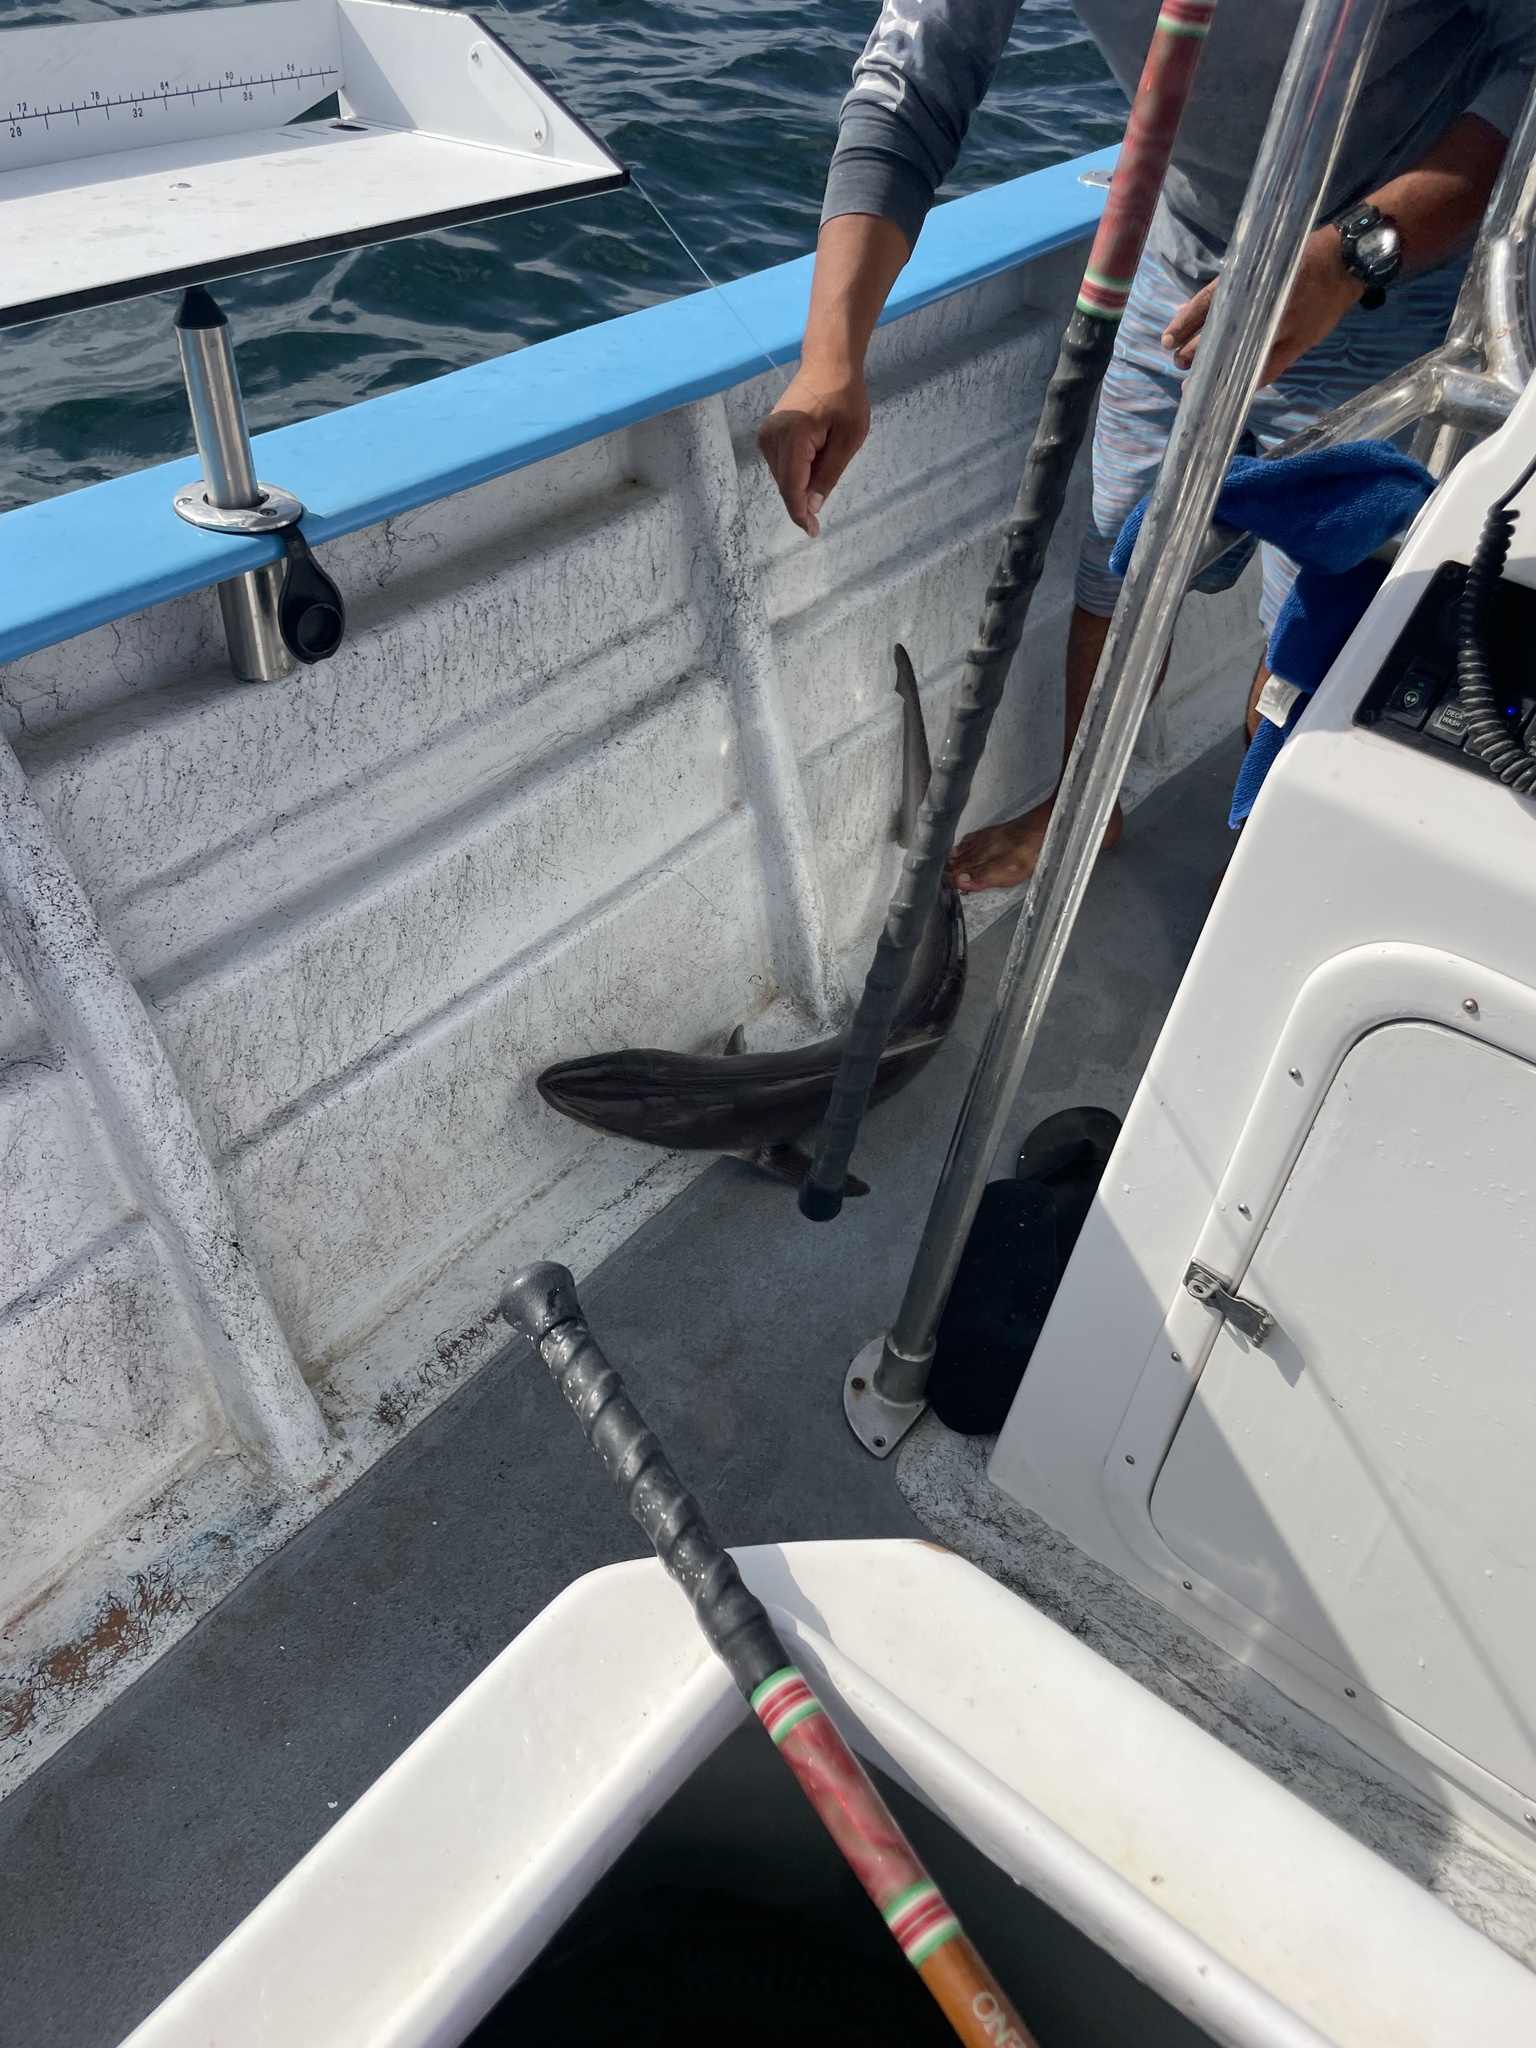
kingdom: Animalia
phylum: Chordata
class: Elasmobranchii
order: Carcharhiniformes
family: Carcharhinidae
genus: Rhizoprionodon
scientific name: Rhizoprionodon longurio
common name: Pacific sharpnose shark
